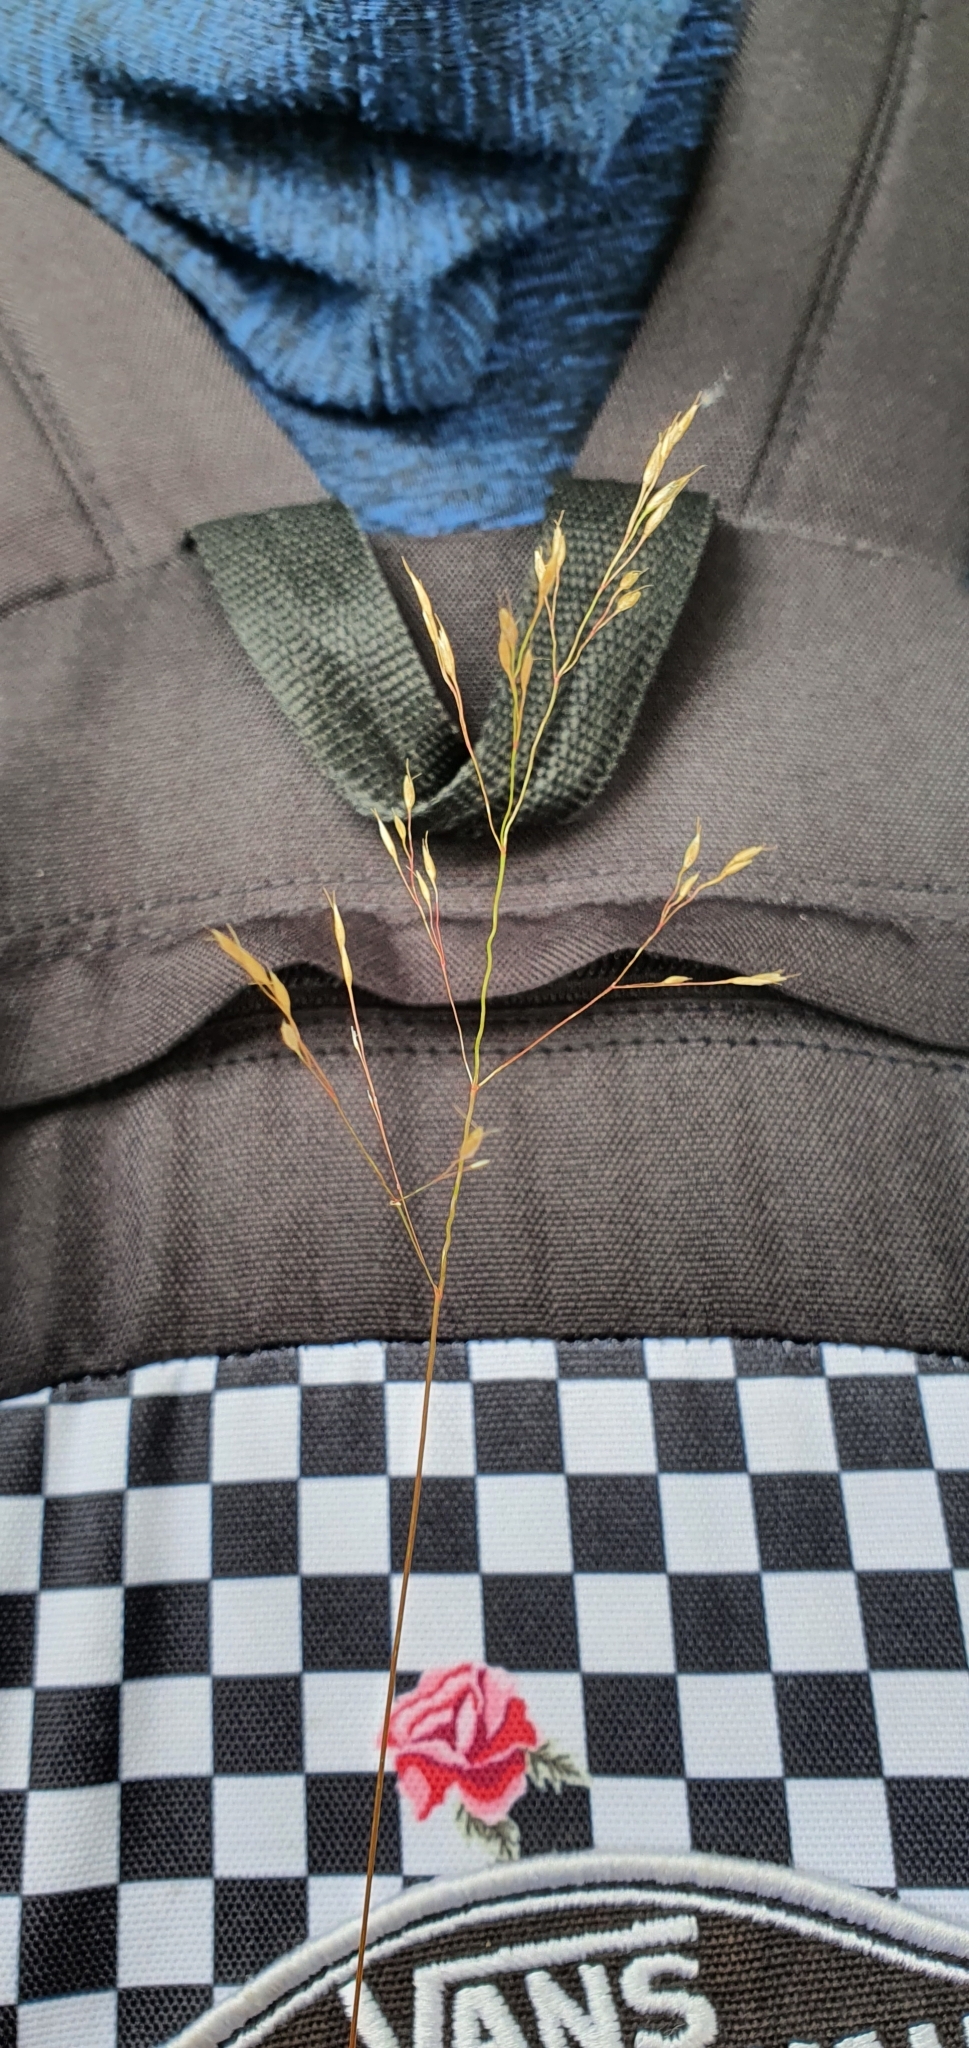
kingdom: Plantae
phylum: Tracheophyta
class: Liliopsida
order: Poales
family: Poaceae
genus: Avenella
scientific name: Avenella flexuosa
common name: Wavy hairgrass
